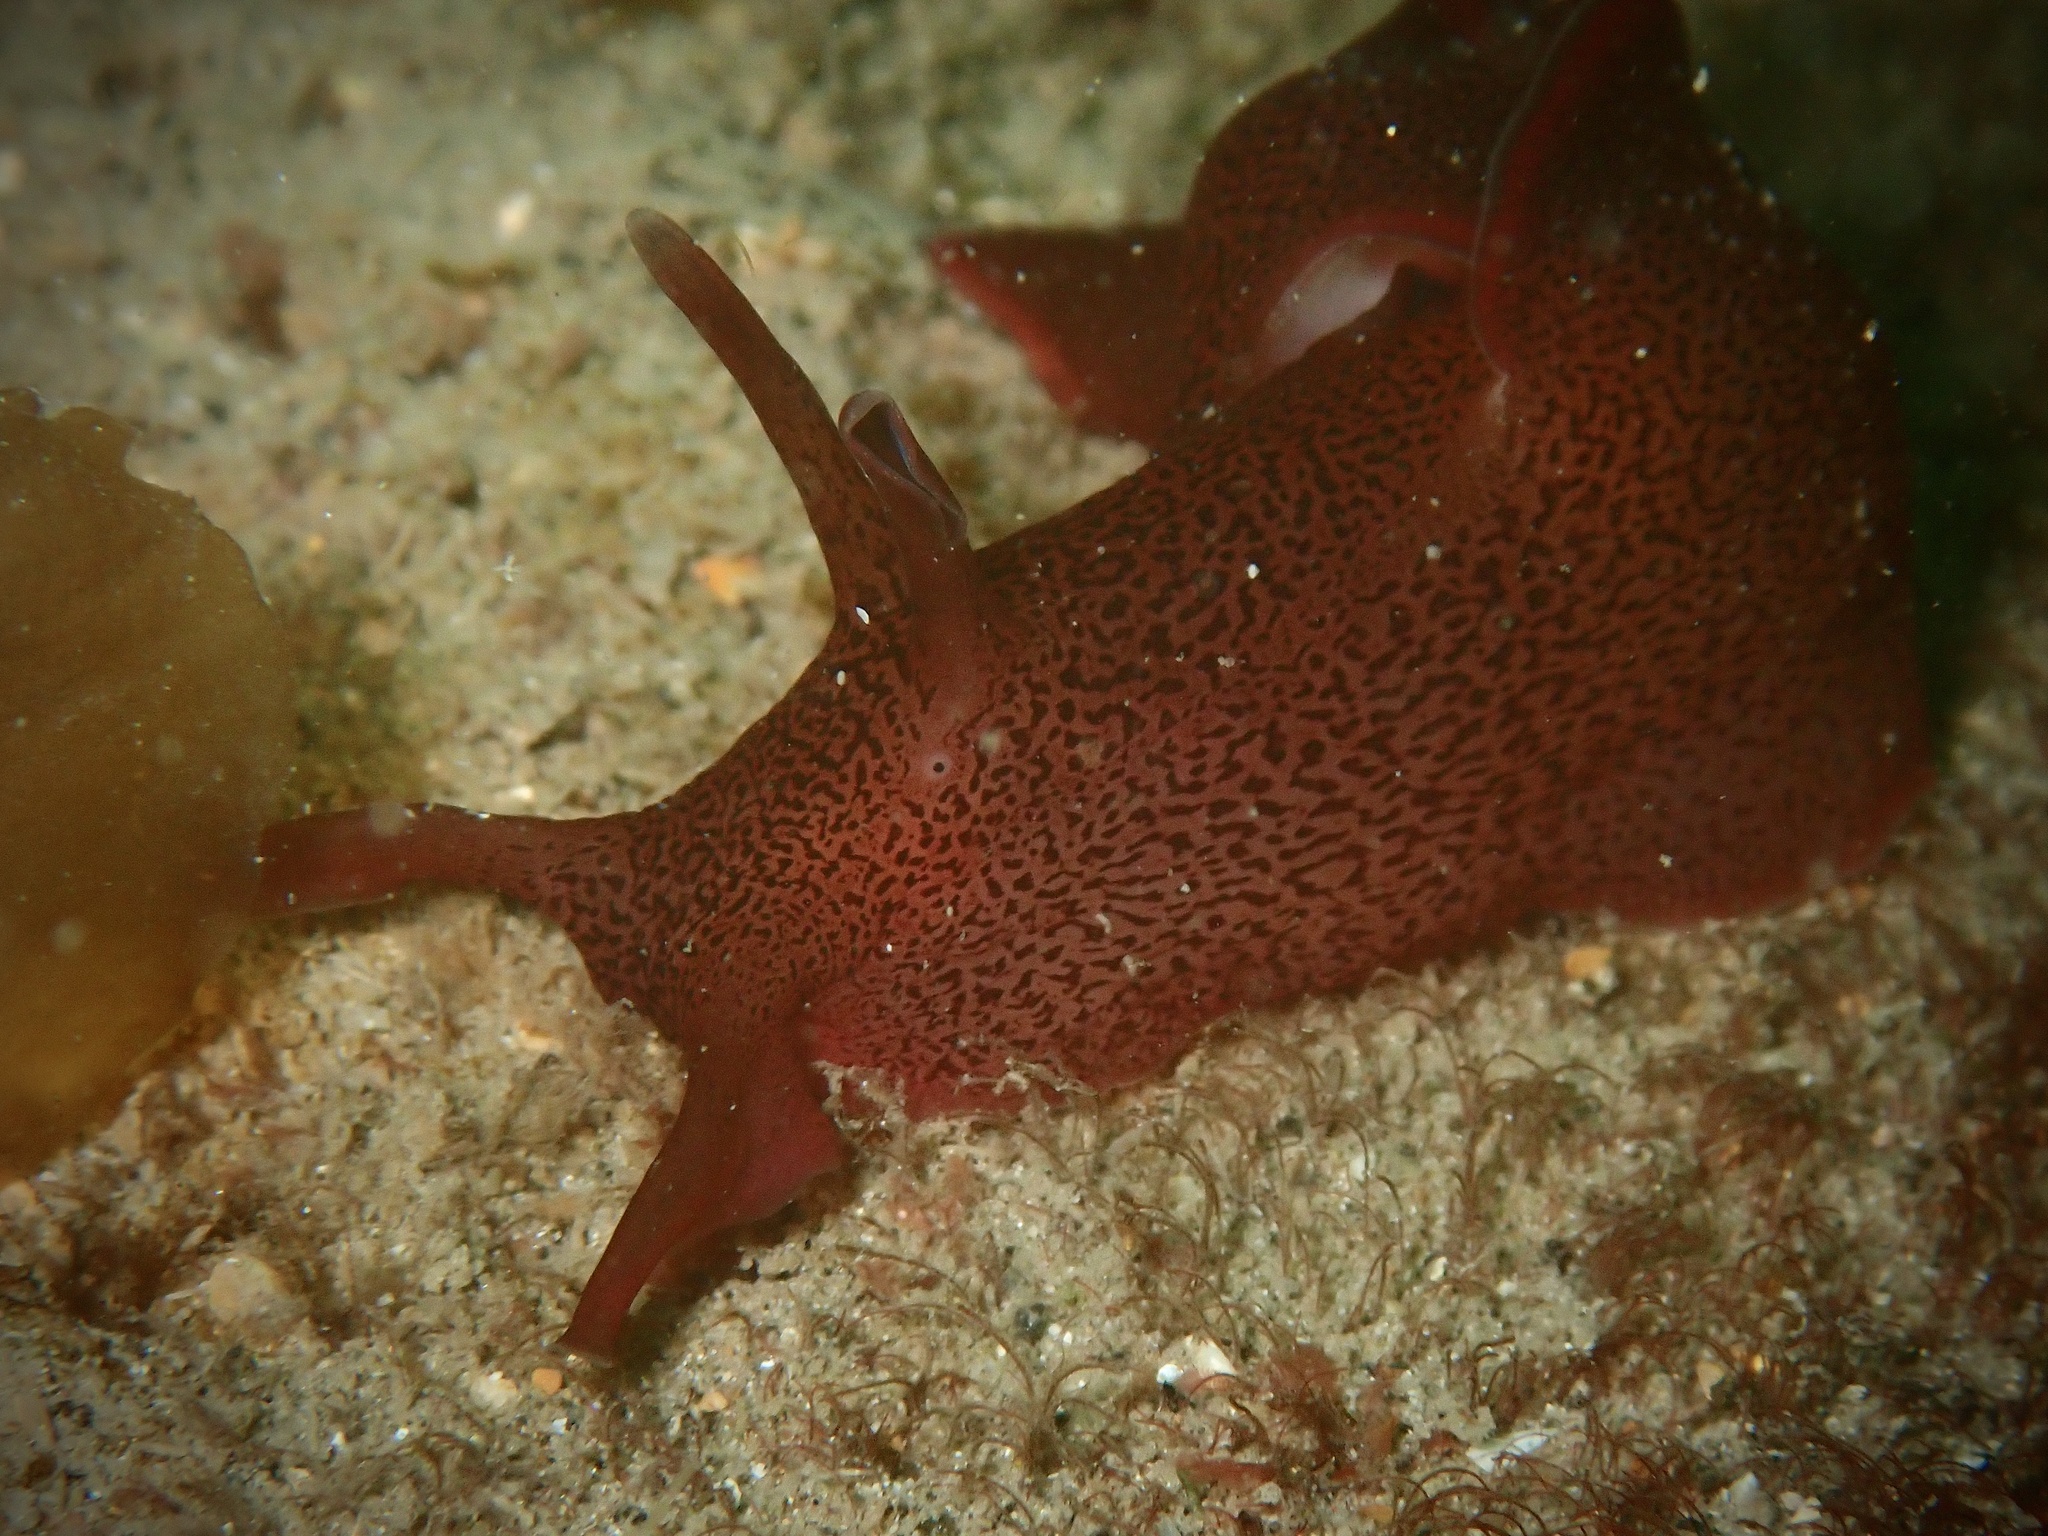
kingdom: Animalia
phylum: Mollusca
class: Gastropoda
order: Aplysiida
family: Aplysiidae
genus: Aplysia
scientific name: Aplysia punctata
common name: Common sea hare
